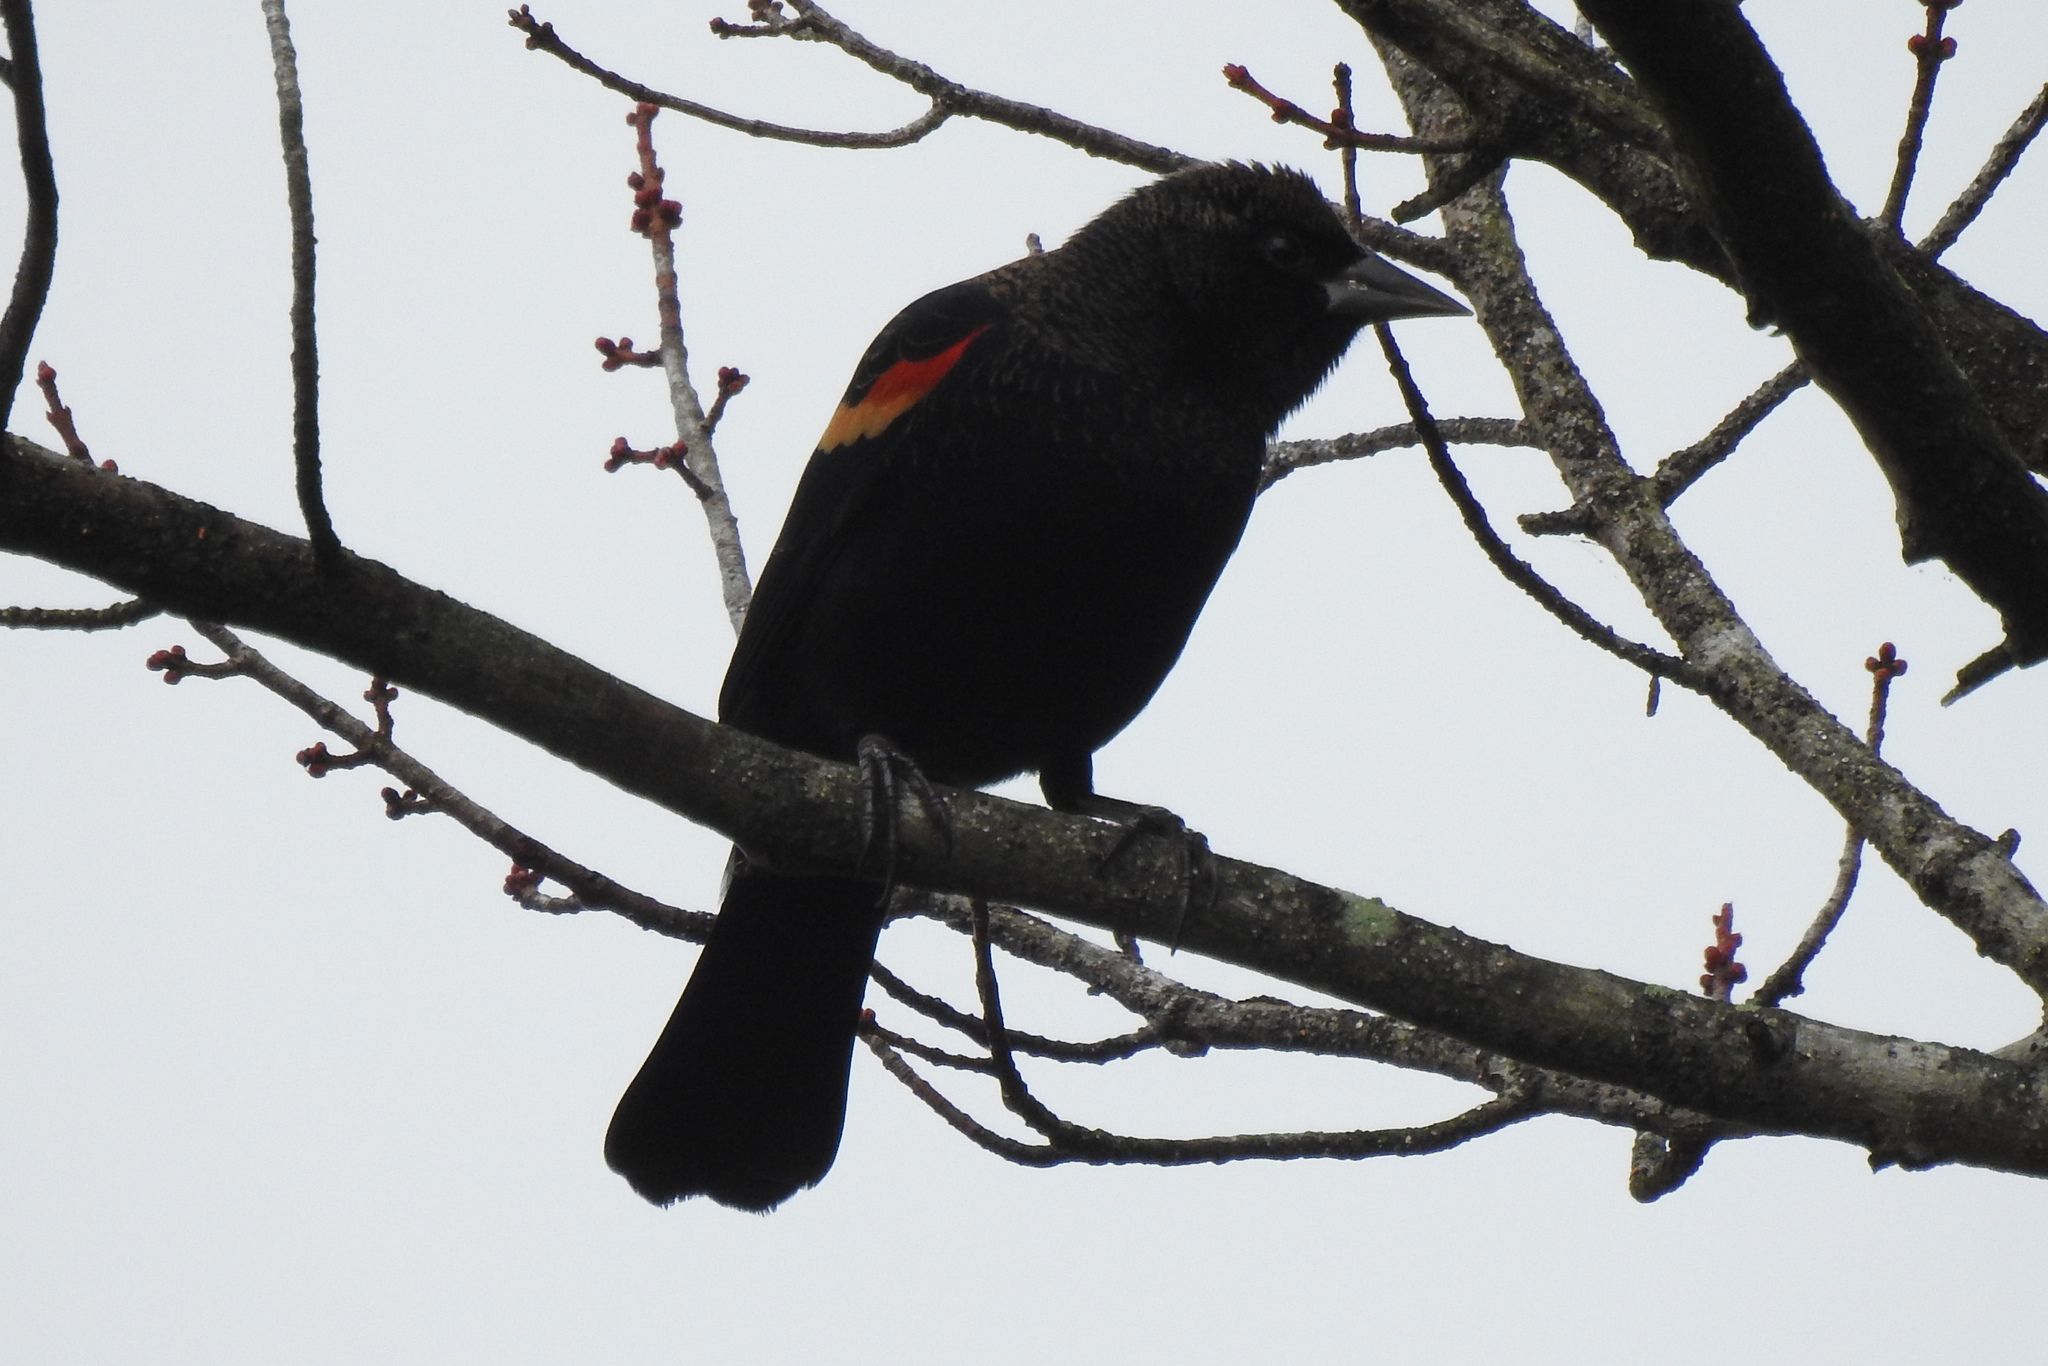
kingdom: Animalia
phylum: Chordata
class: Aves
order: Passeriformes
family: Icteridae
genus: Agelaius
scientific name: Agelaius phoeniceus
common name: Red-winged blackbird
